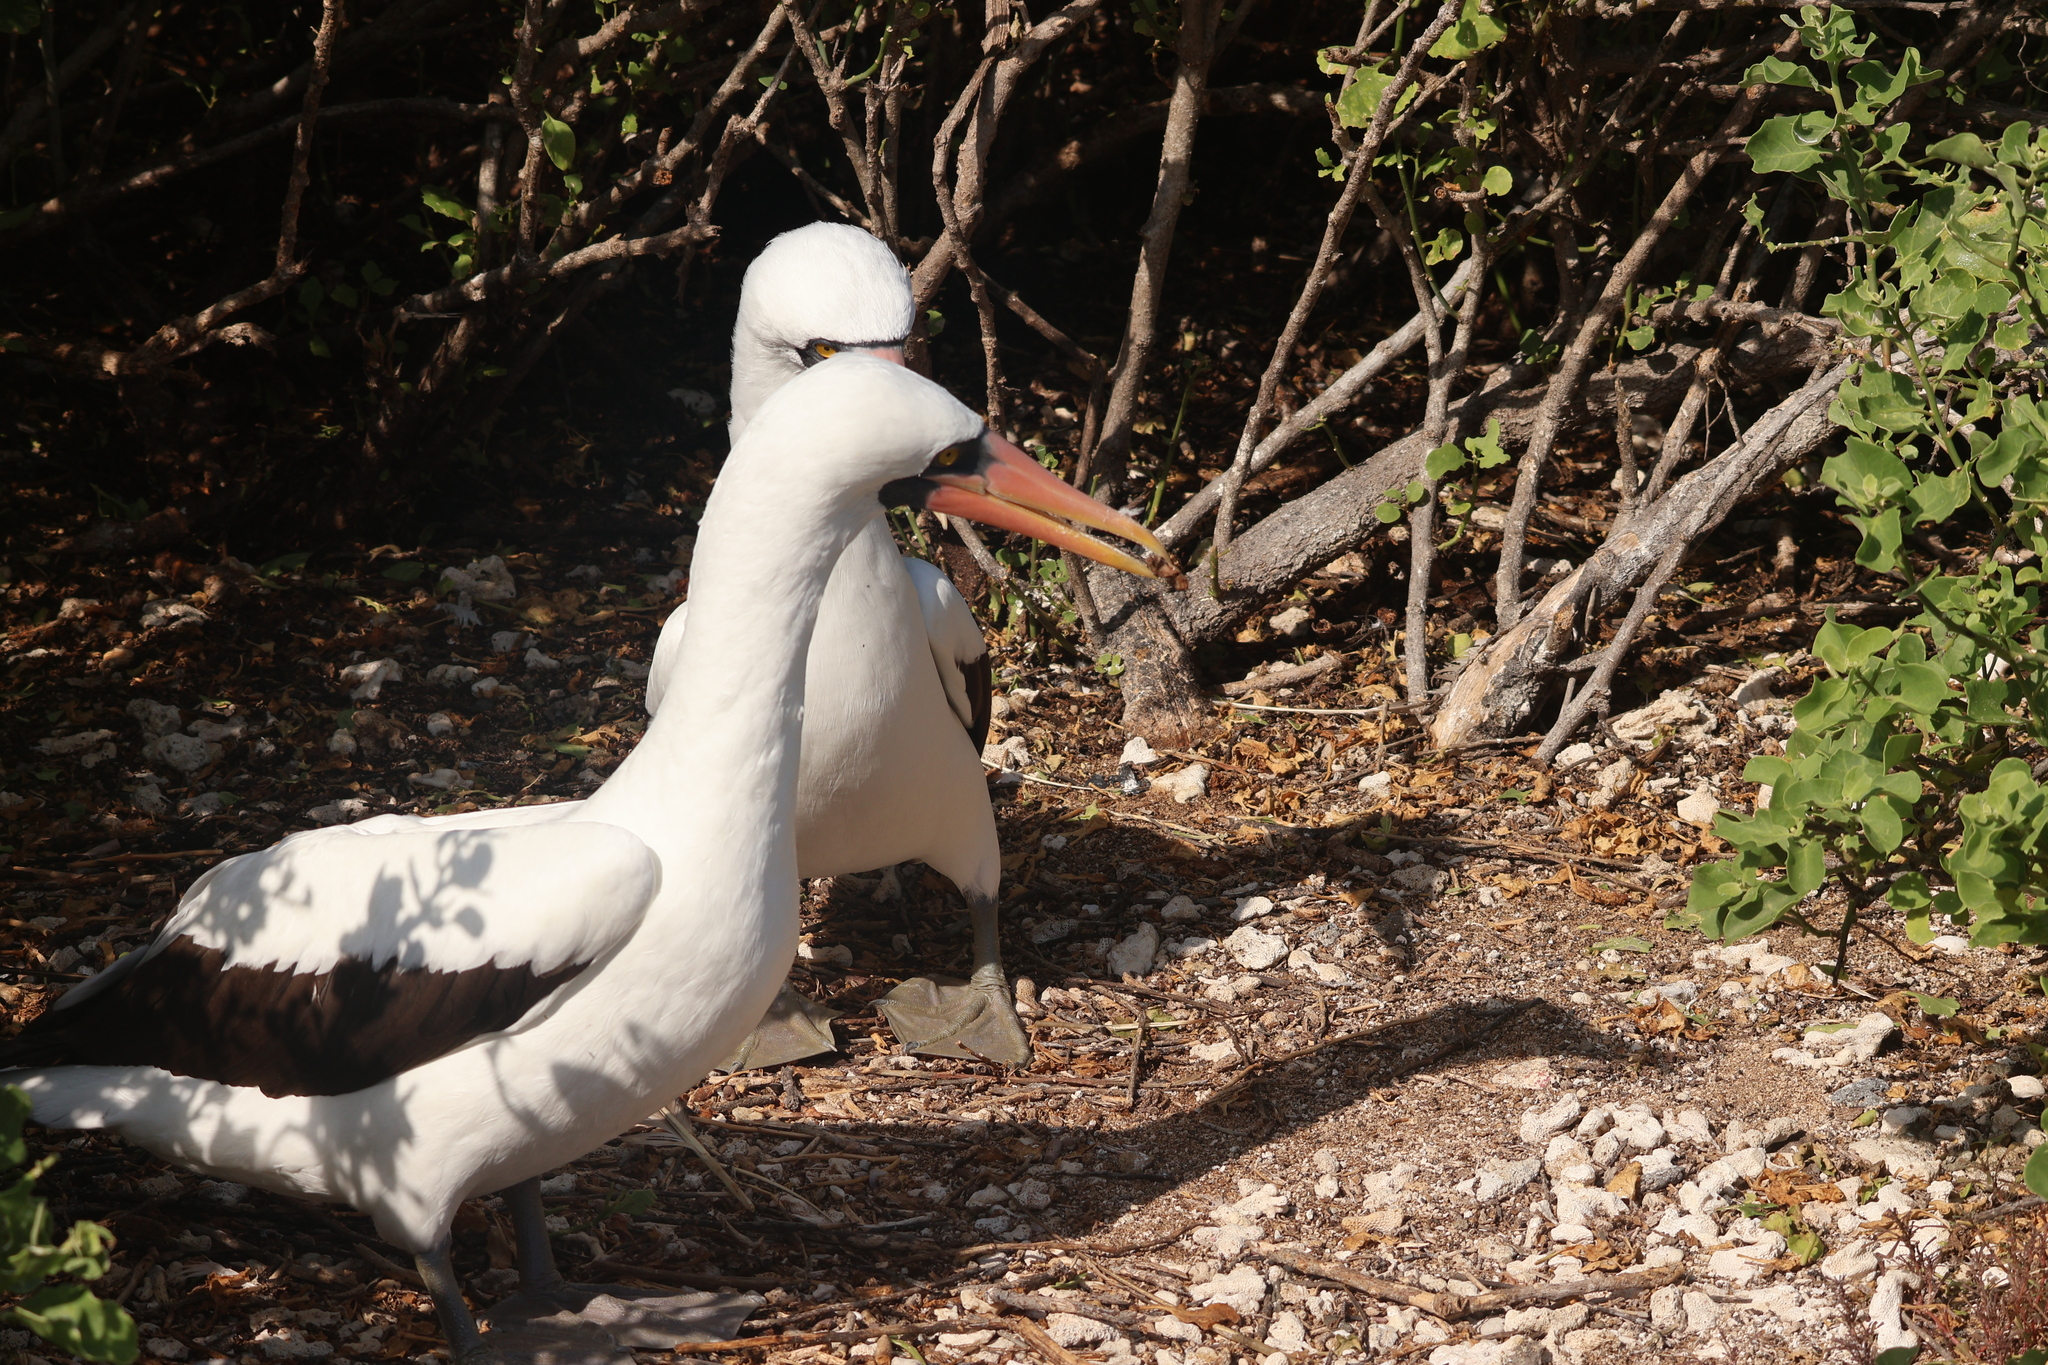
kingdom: Animalia
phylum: Chordata
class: Aves
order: Suliformes
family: Sulidae
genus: Sula
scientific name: Sula granti
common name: Nazca booby
